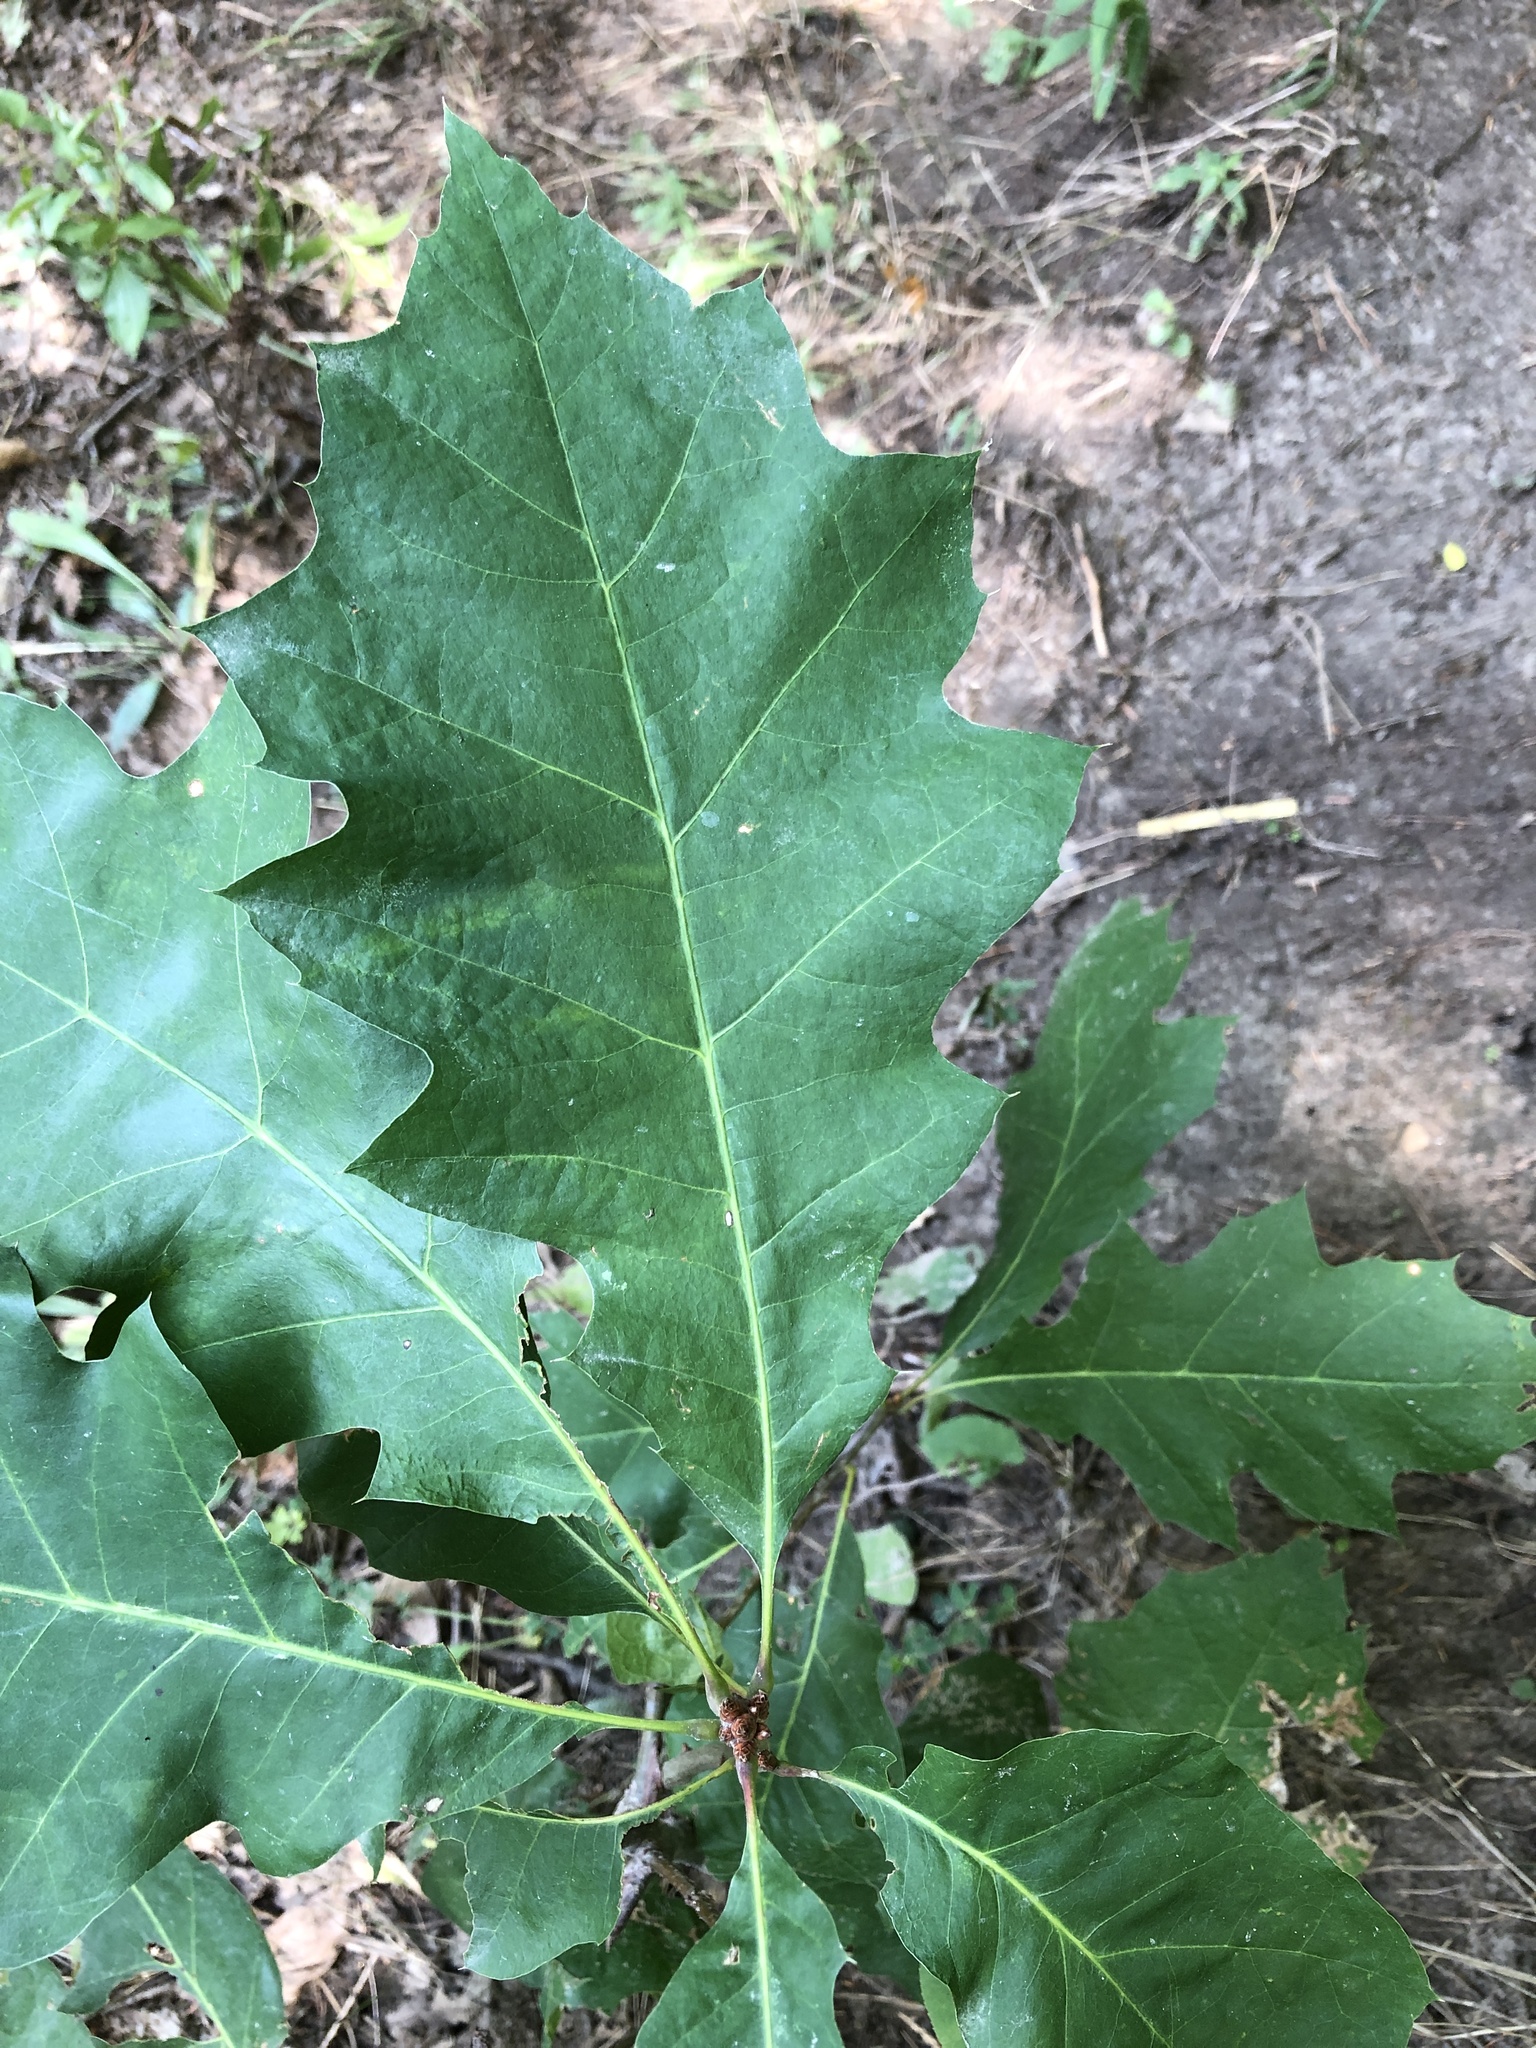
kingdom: Plantae
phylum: Tracheophyta
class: Magnoliopsida
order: Fagales
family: Fagaceae
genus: Quercus
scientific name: Quercus rubra
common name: Red oak
